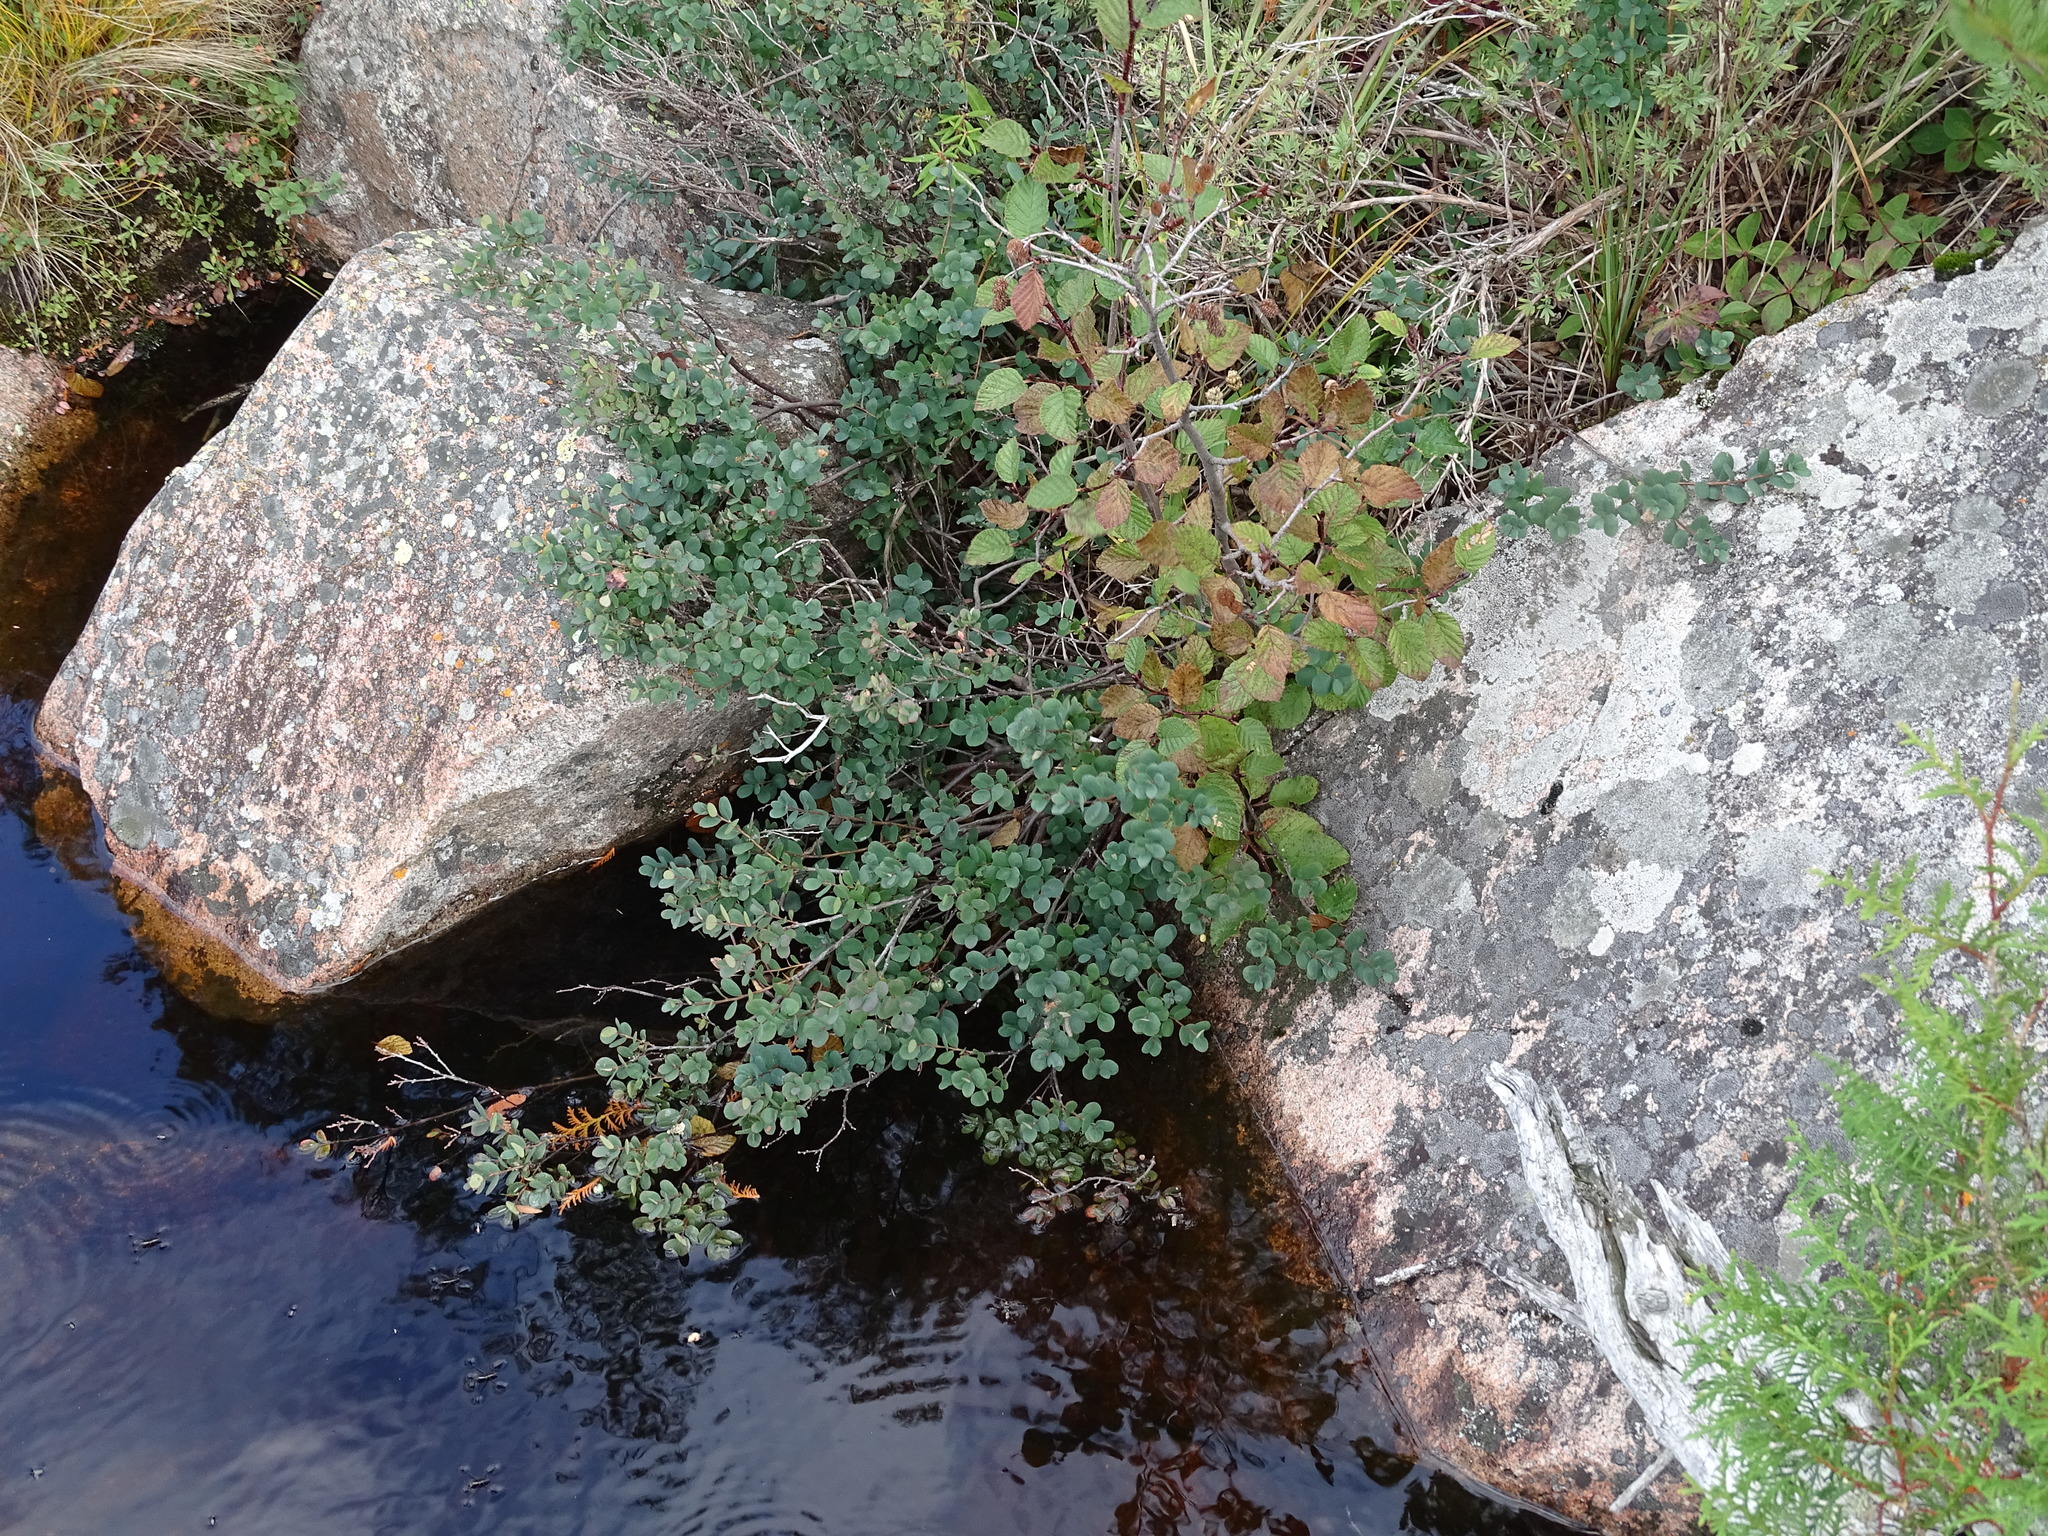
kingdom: Plantae
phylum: Tracheophyta
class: Magnoliopsida
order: Ericales
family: Ericaceae
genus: Vaccinium
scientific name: Vaccinium uliginosum
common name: Bog bilberry
